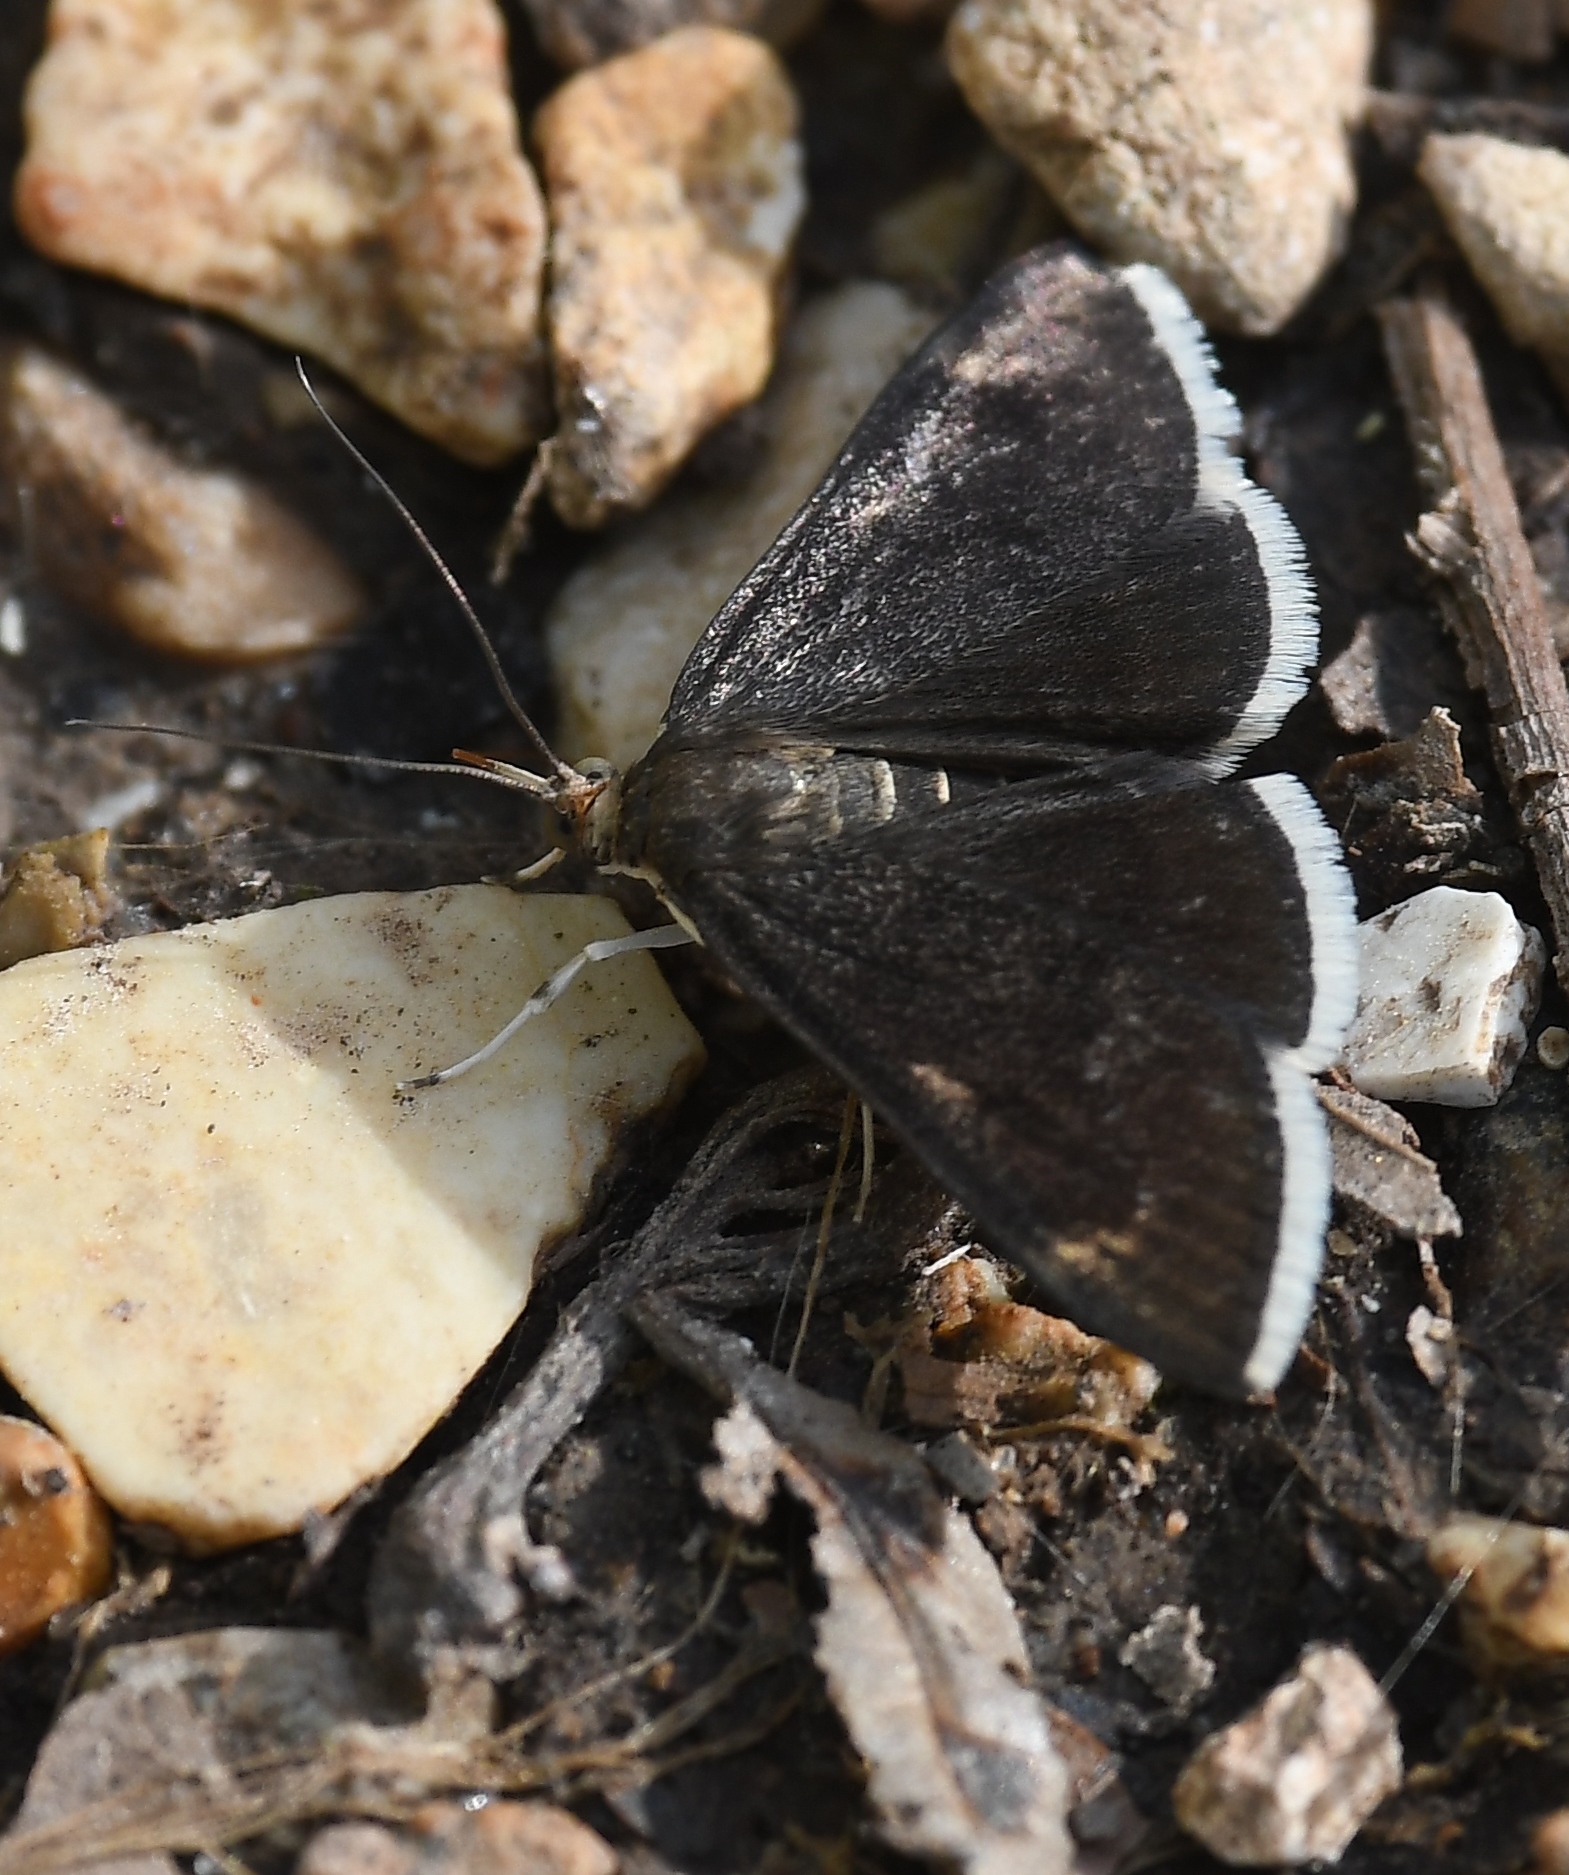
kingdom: Animalia
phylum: Arthropoda
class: Insecta
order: Lepidoptera
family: Crambidae
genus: Pyrausta
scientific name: Pyrausta niveicilialis
